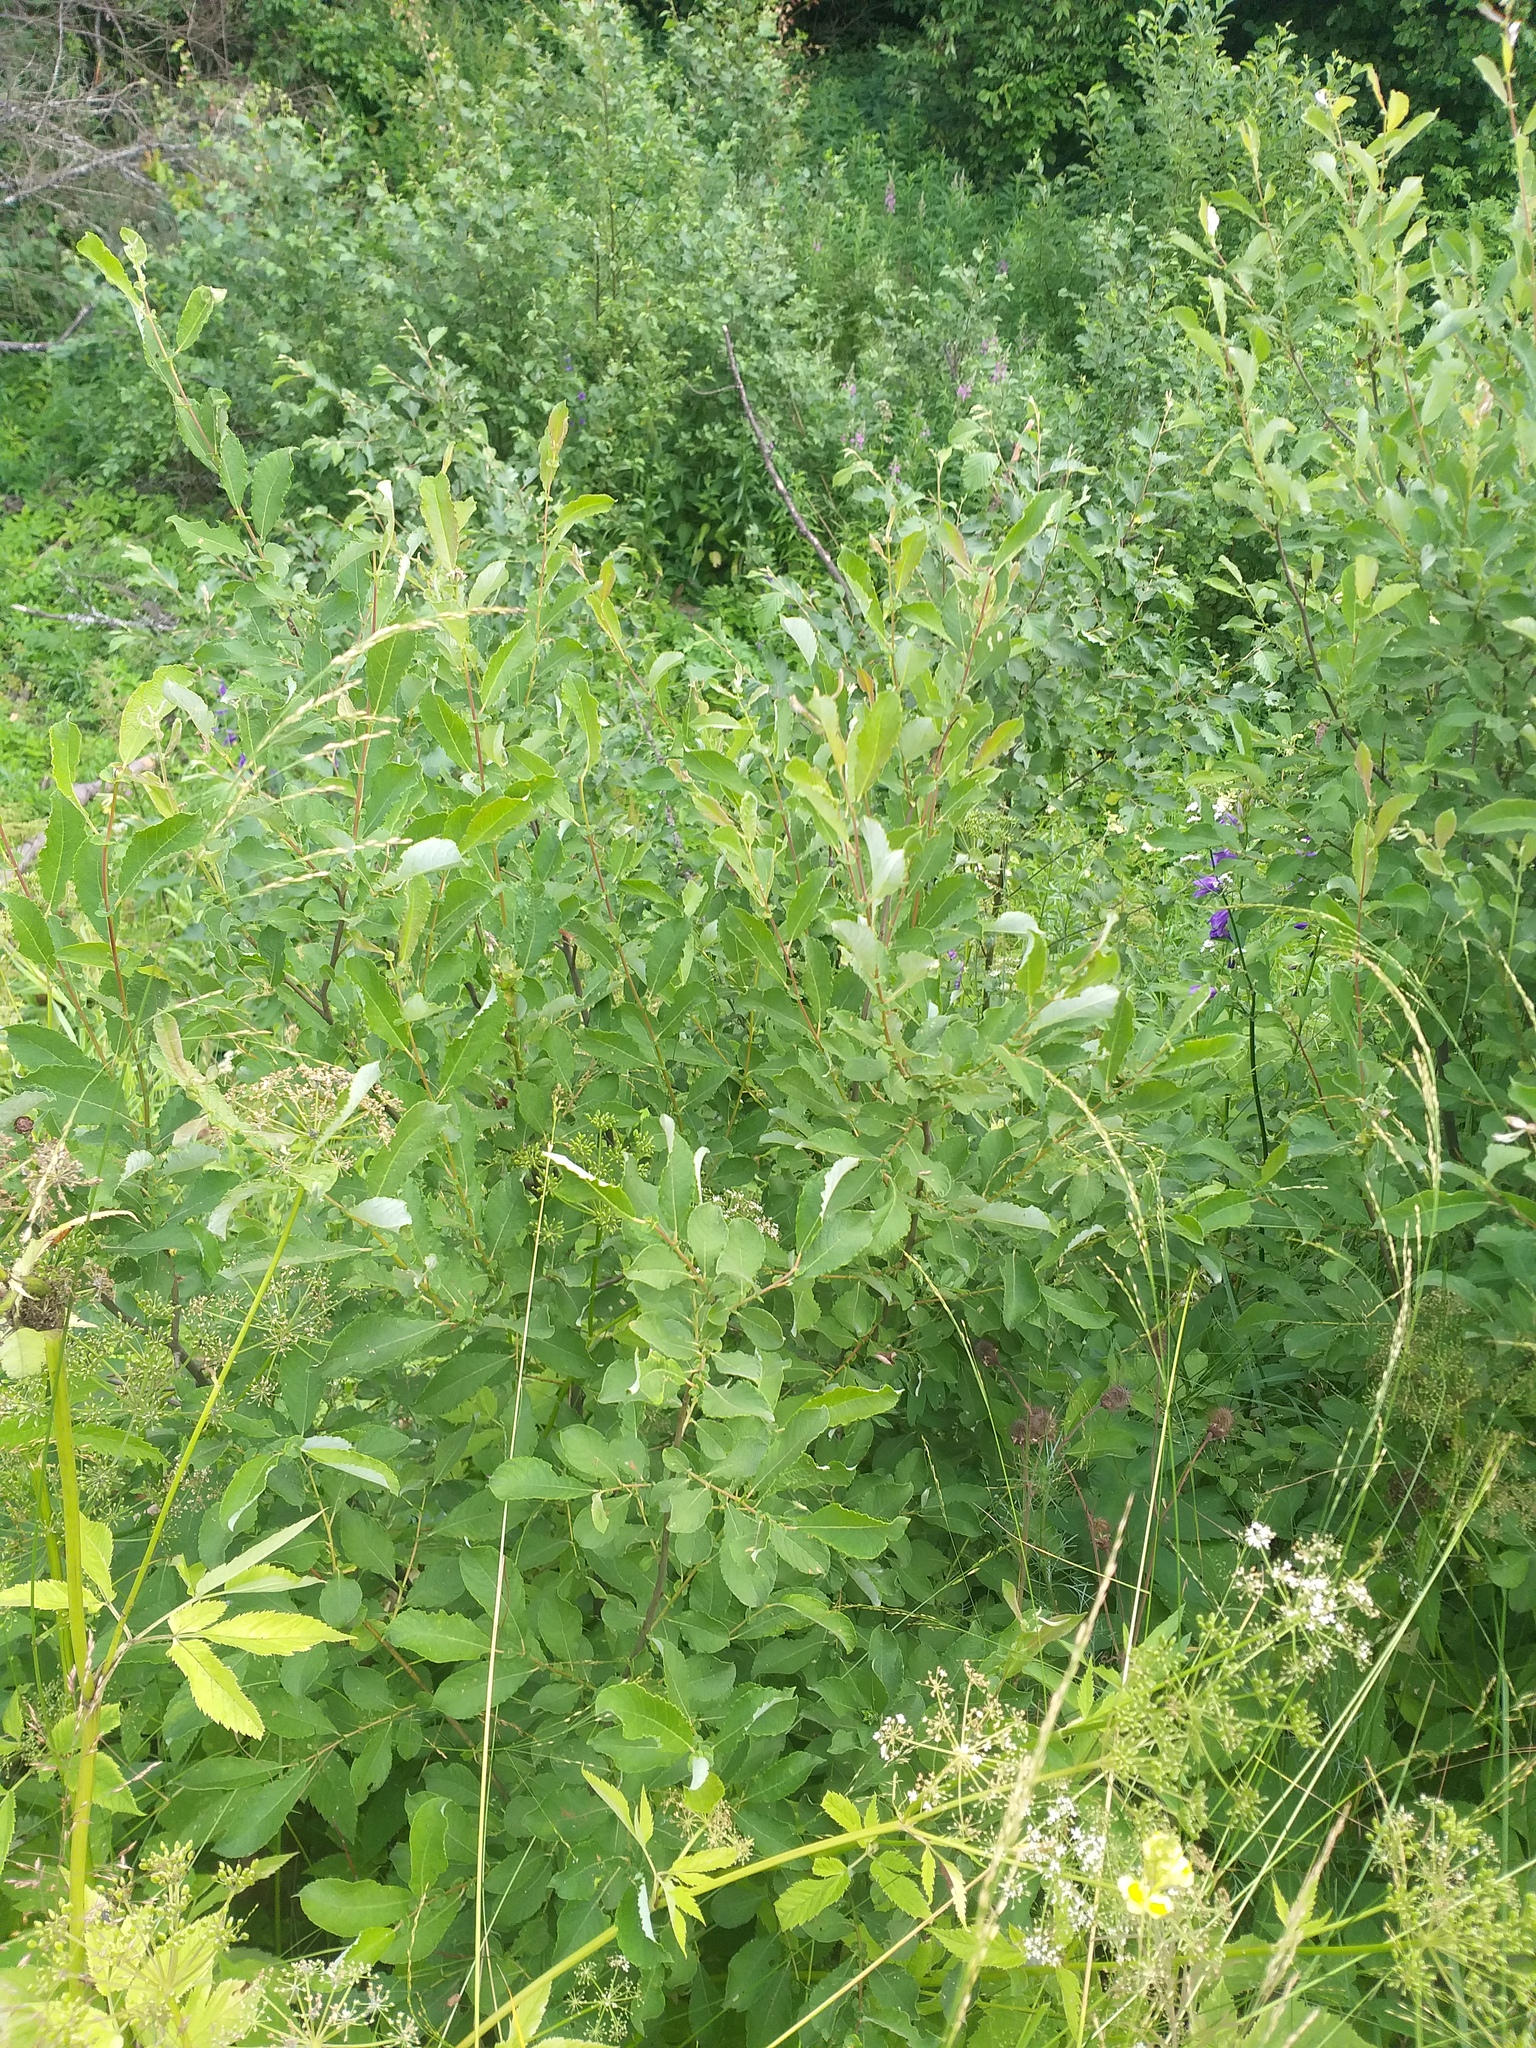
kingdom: Plantae
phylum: Tracheophyta
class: Magnoliopsida
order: Malpighiales
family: Salicaceae
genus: Salix
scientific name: Salix aurita
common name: Eared willow
